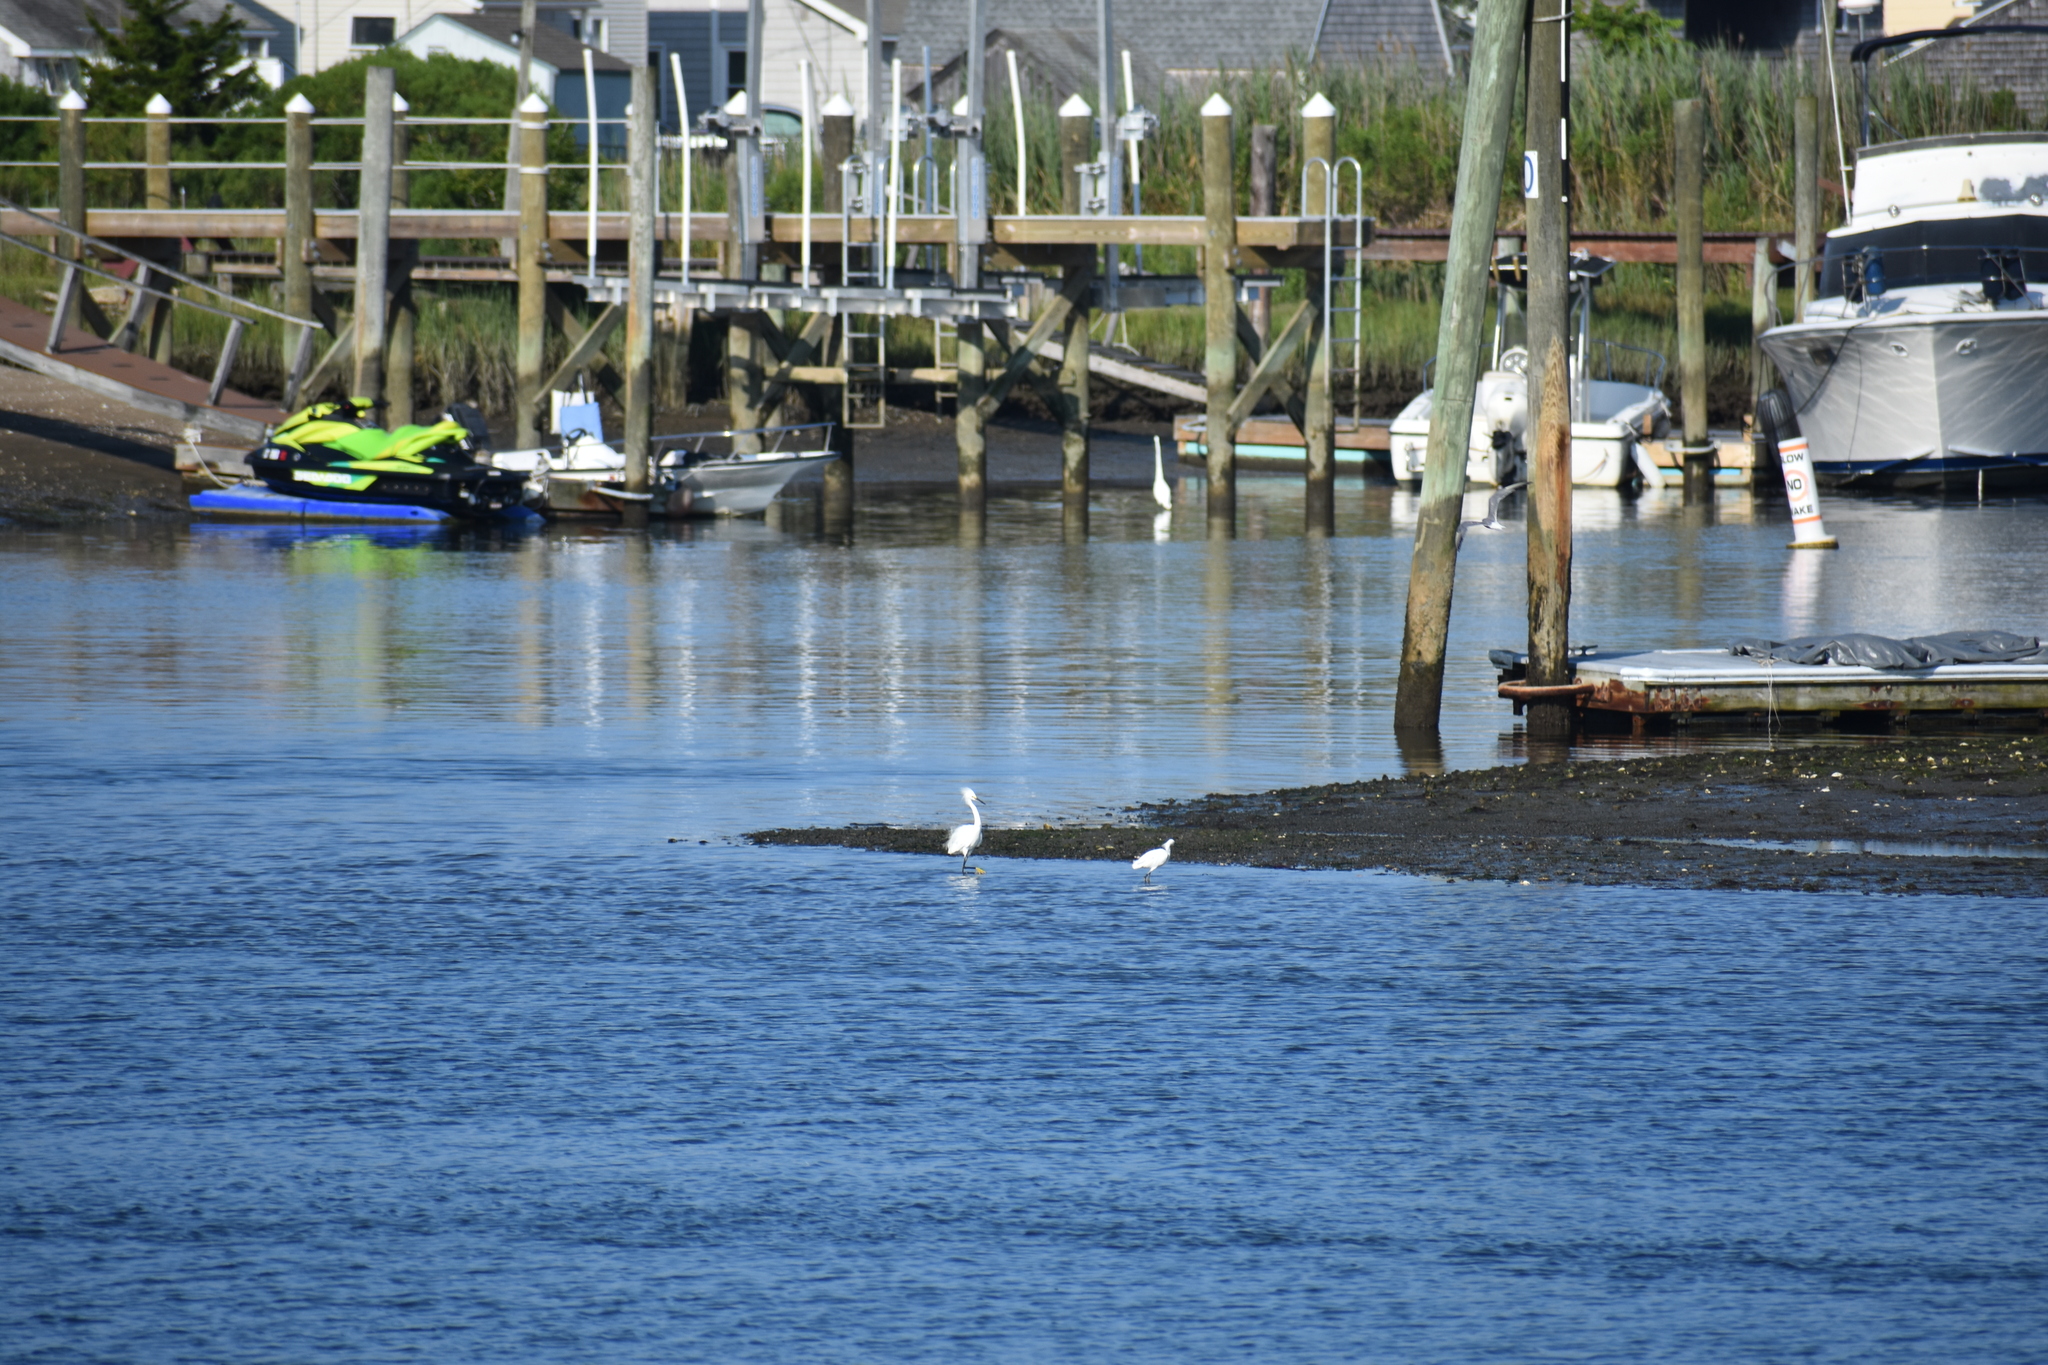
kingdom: Animalia
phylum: Chordata
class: Aves
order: Pelecaniformes
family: Ardeidae
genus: Egretta
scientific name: Egretta thula
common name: Snowy egret
